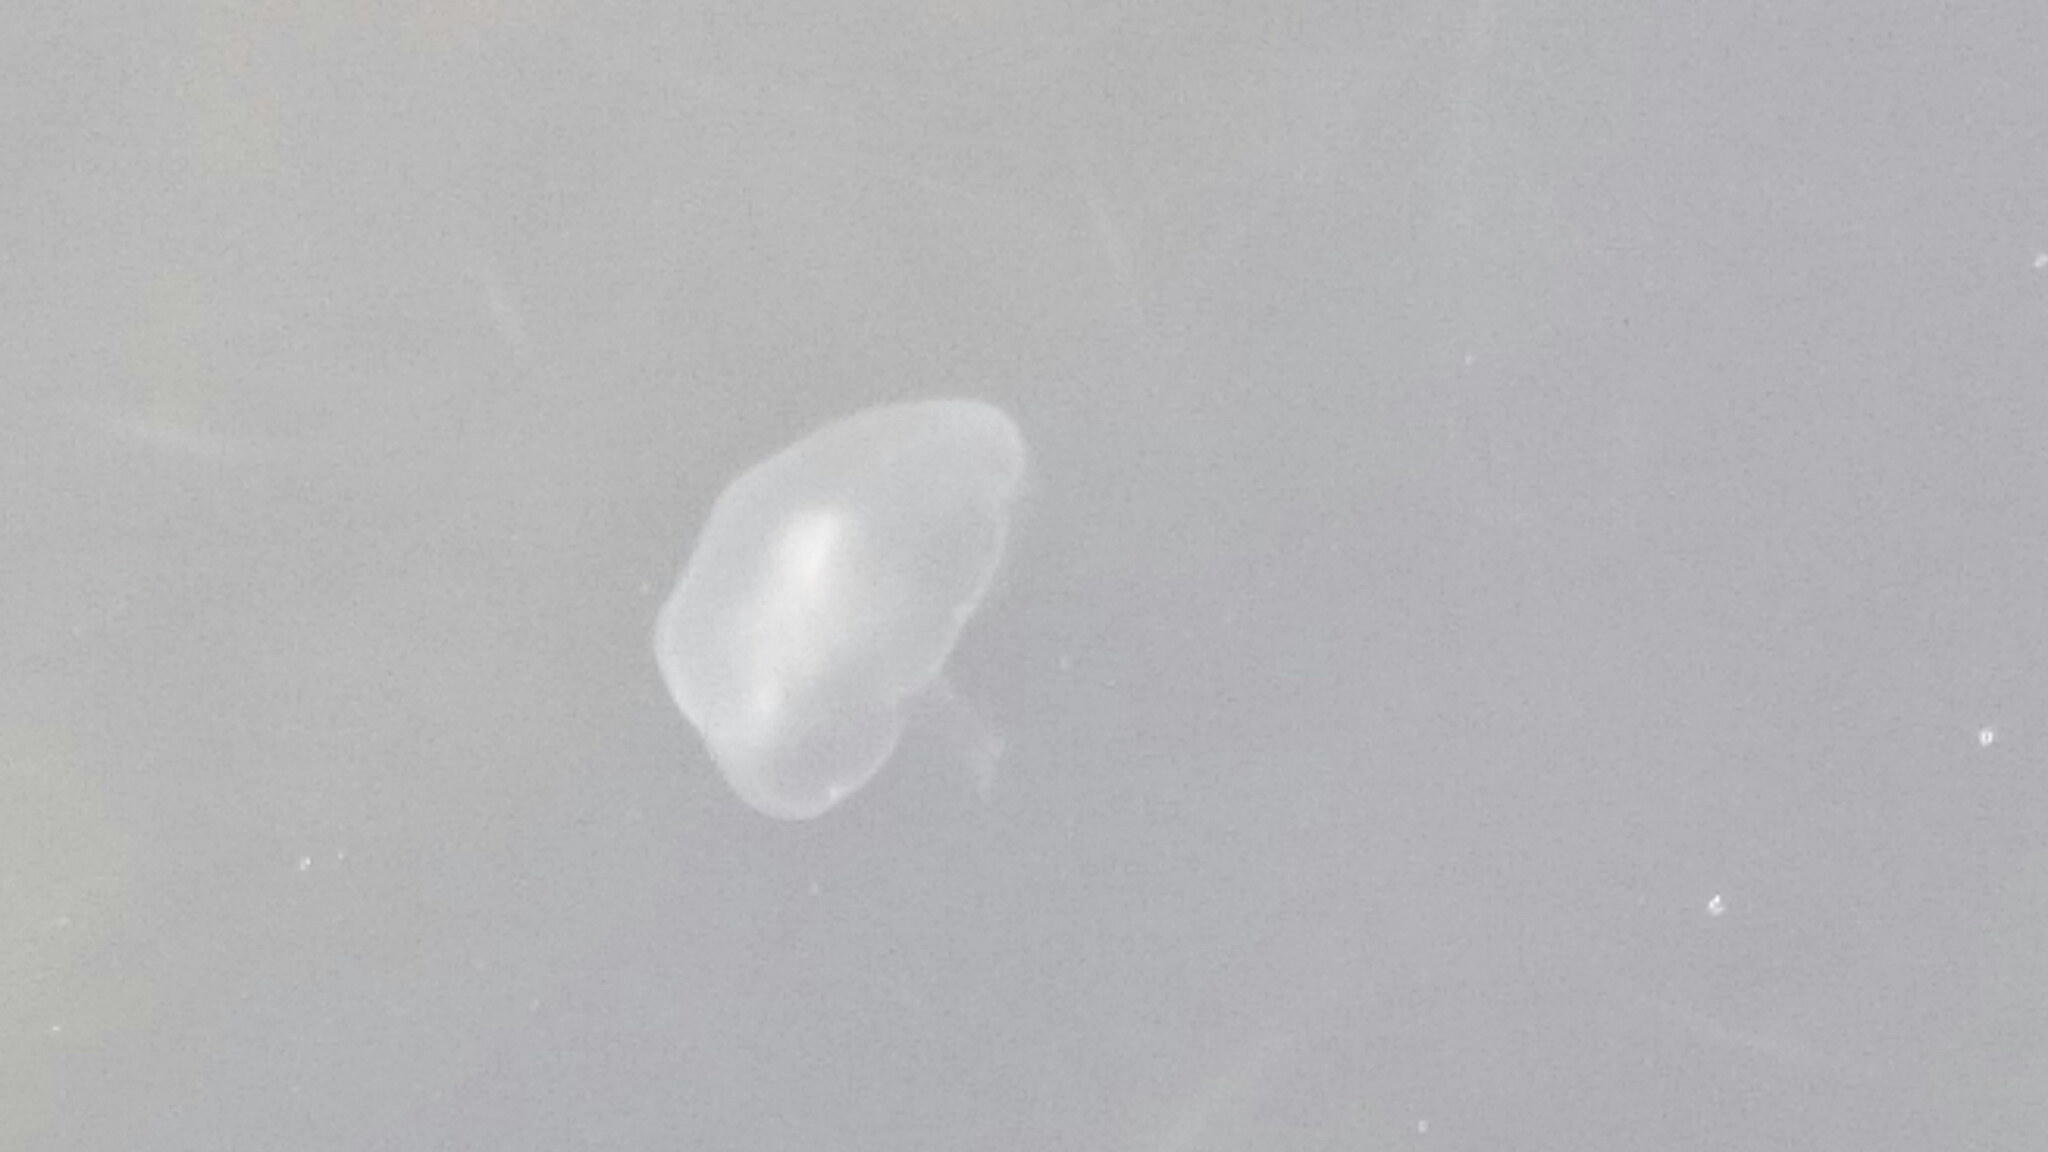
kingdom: Animalia
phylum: Cnidaria
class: Scyphozoa
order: Semaeostomeae
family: Ulmaridae
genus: Aurelia
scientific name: Aurelia aurita
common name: Moon jellyfish
